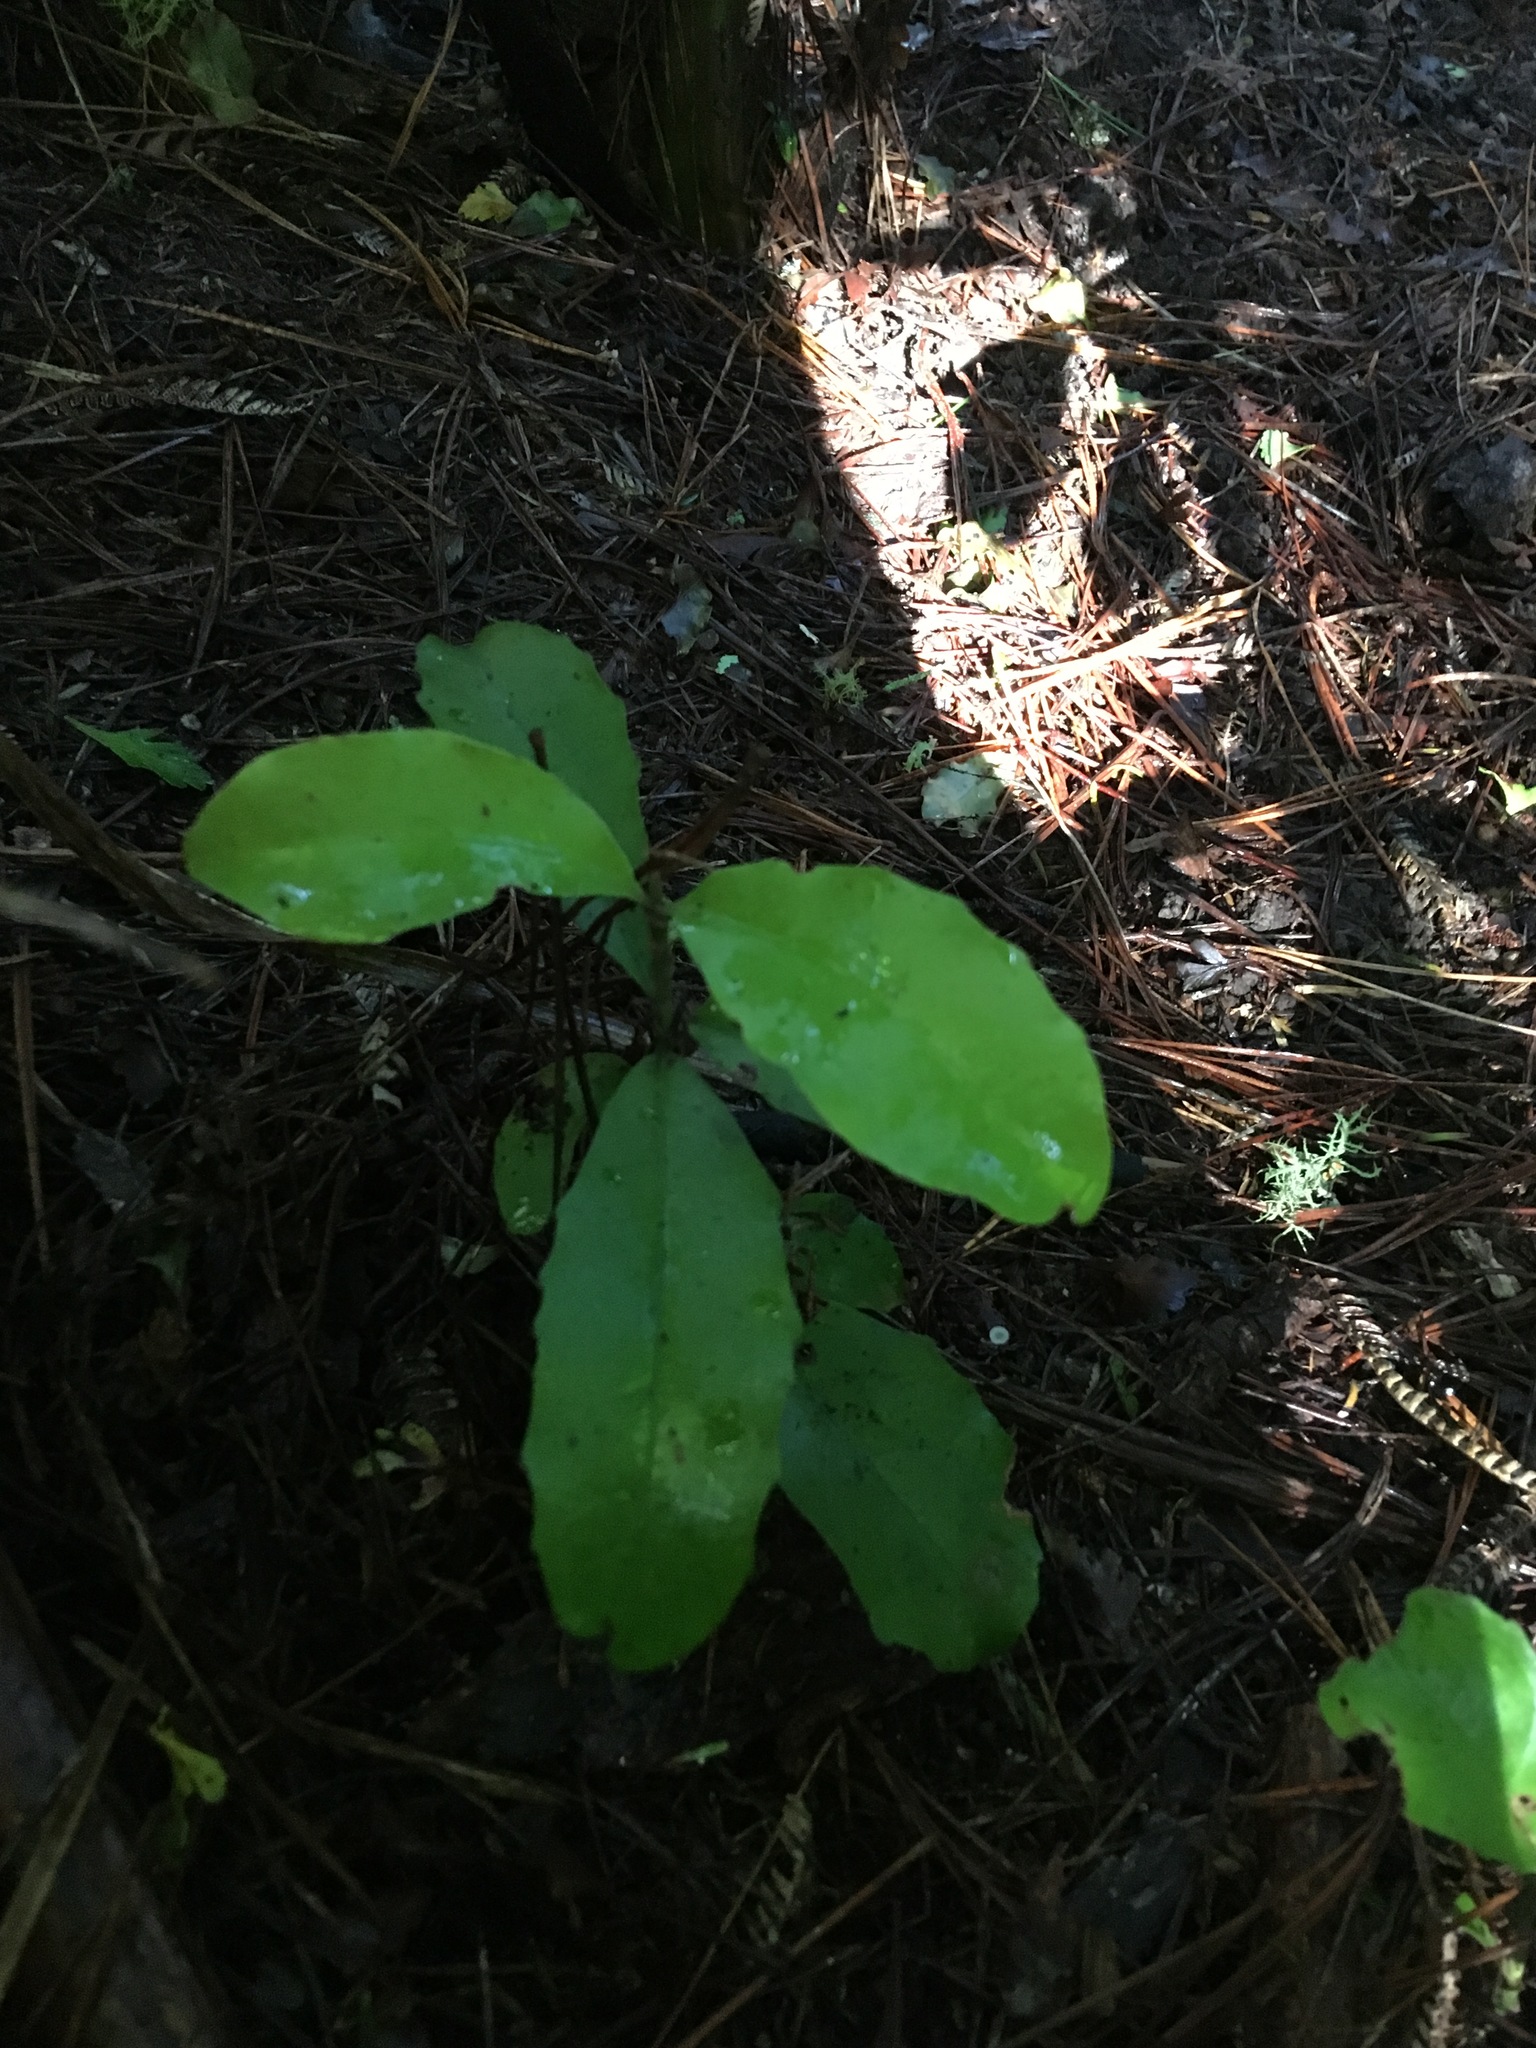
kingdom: Plantae
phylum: Tracheophyta
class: Magnoliopsida
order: Asterales
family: Alseuosmiaceae
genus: Alseuosmia
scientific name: Alseuosmia macrophylla
